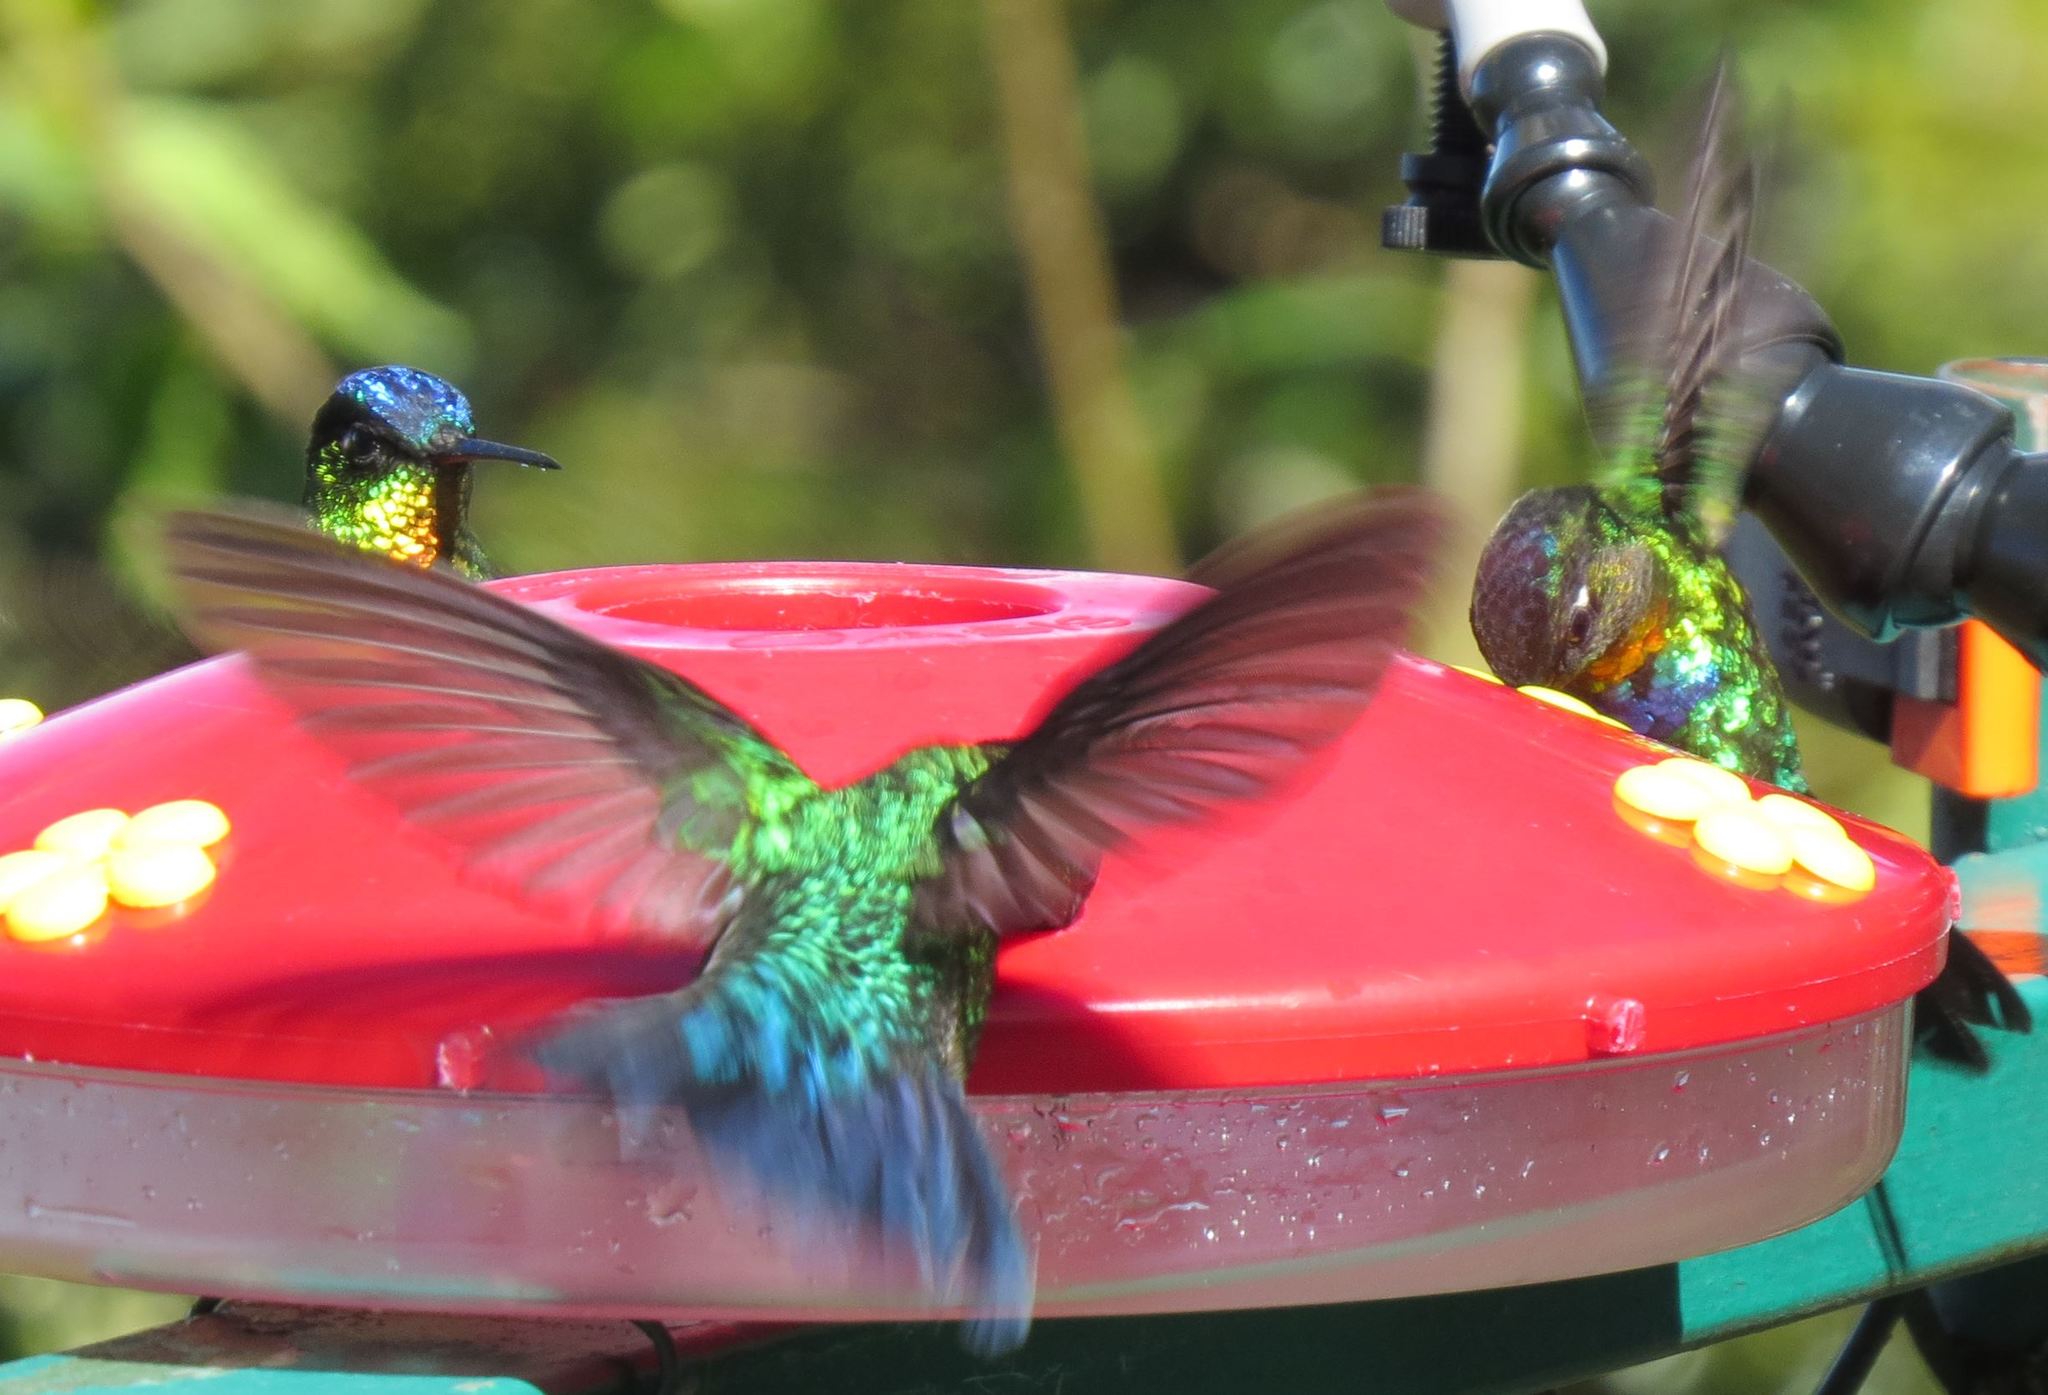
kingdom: Animalia
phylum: Chordata
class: Aves
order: Apodiformes
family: Trochilidae
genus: Panterpe
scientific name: Panterpe insignis
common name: Fiery-throated hummingbird
